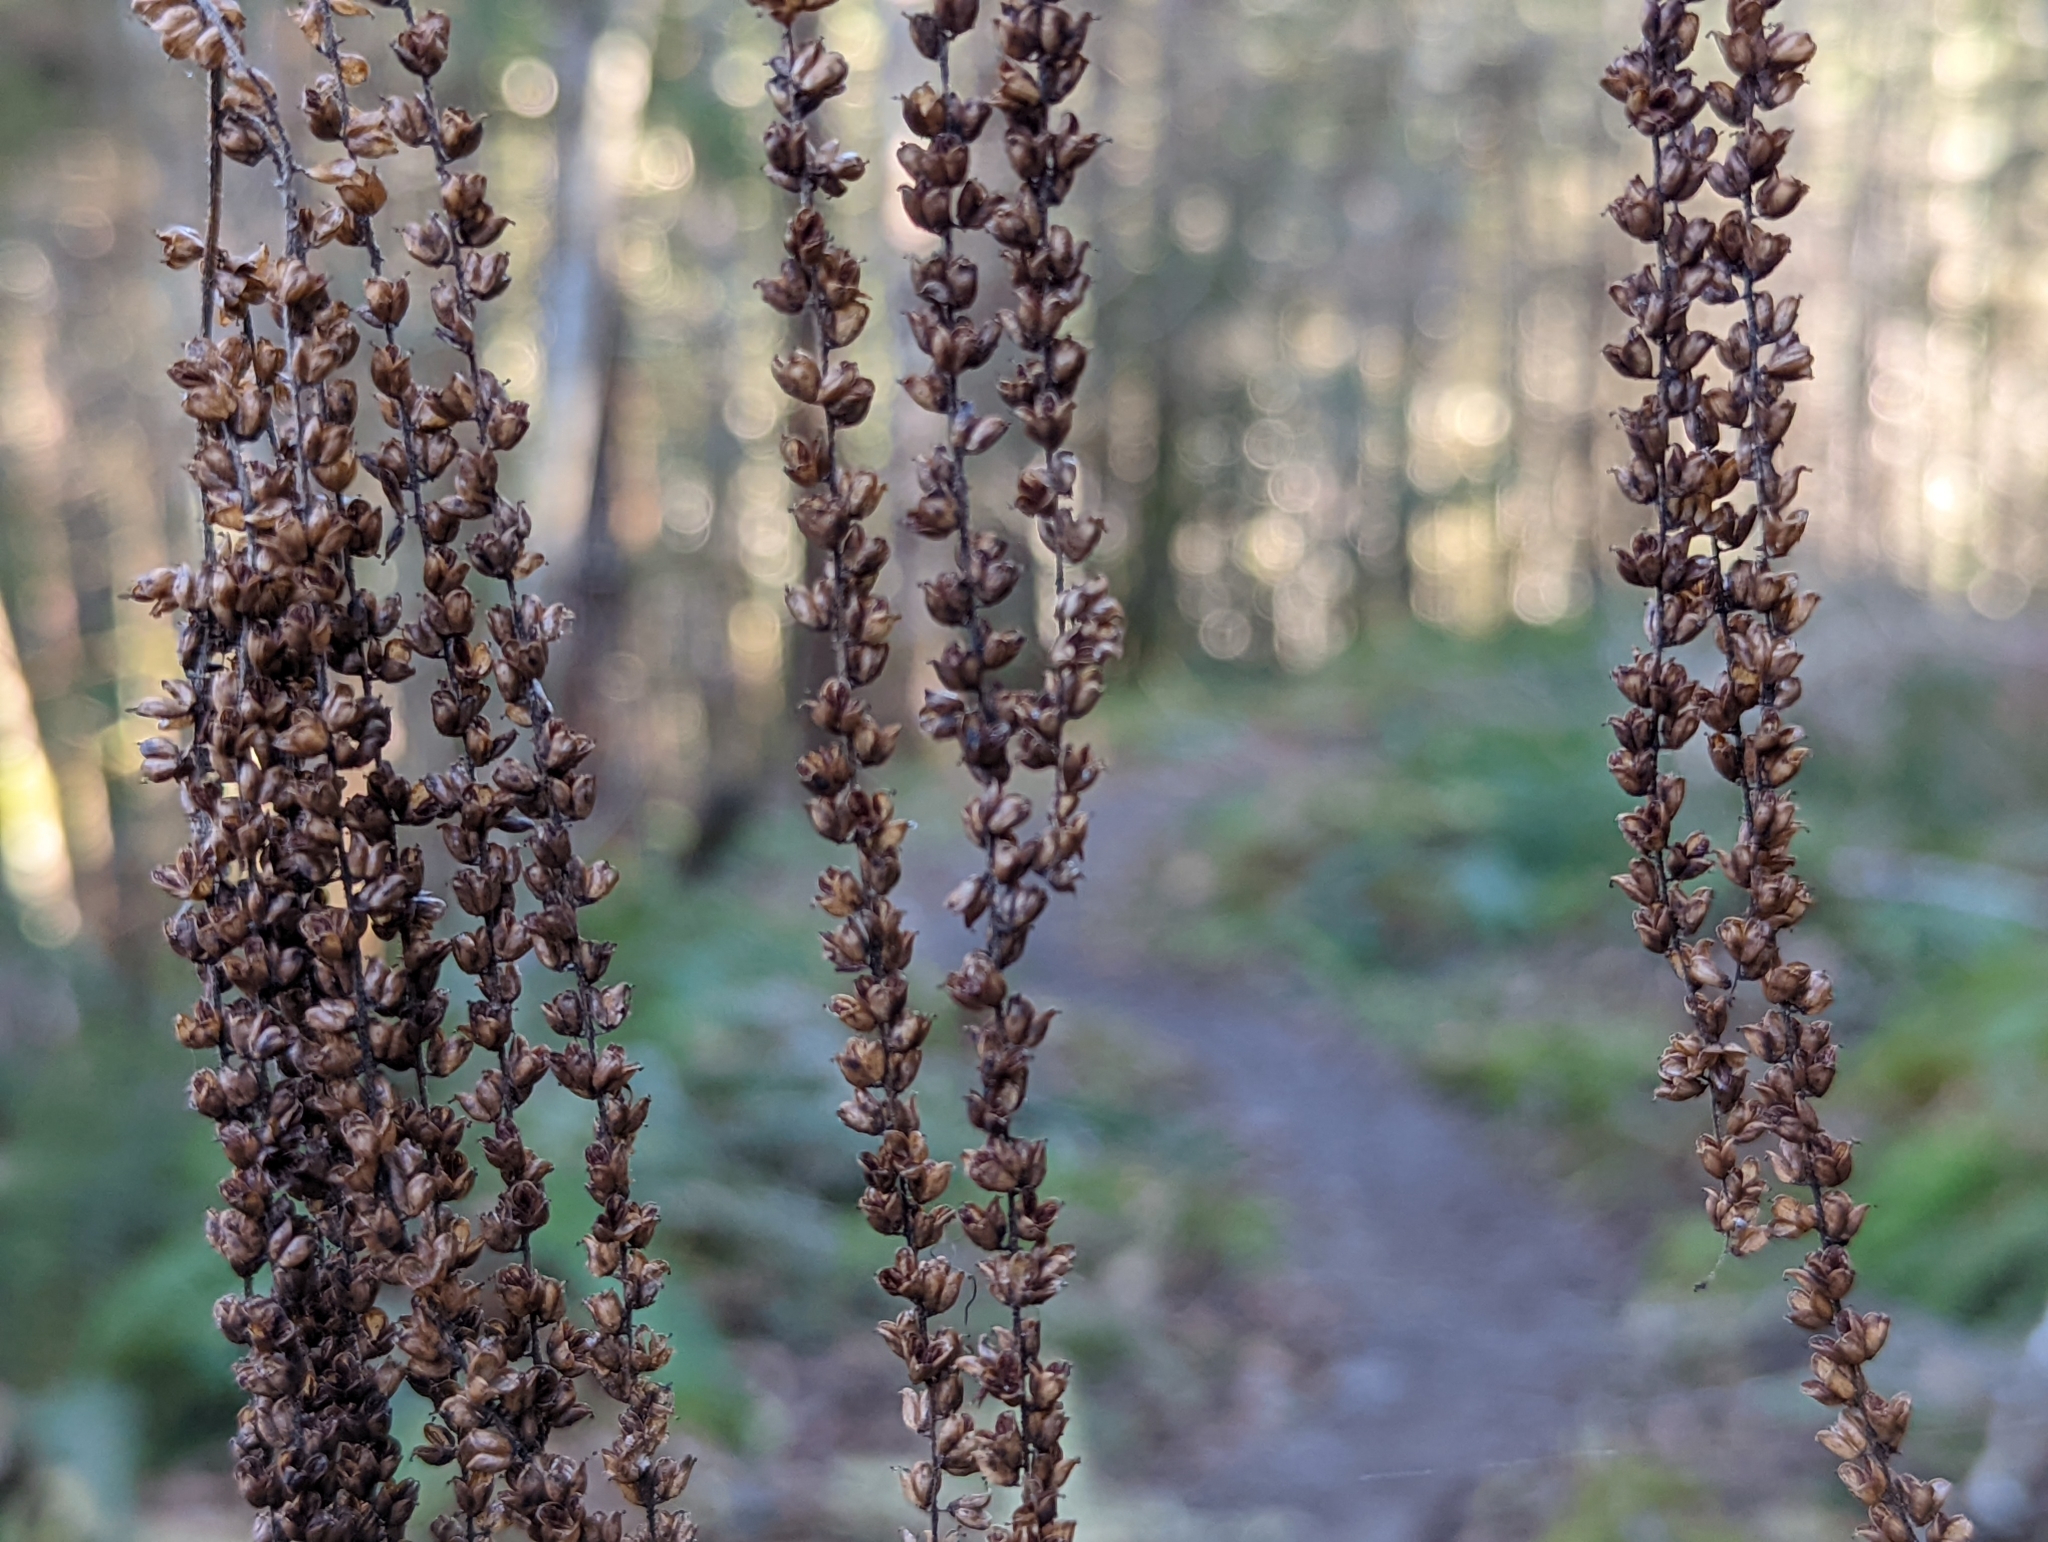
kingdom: Plantae
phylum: Tracheophyta
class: Magnoliopsida
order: Rosales
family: Rosaceae
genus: Aruncus
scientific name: Aruncus dioicus
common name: Buck's-beard
